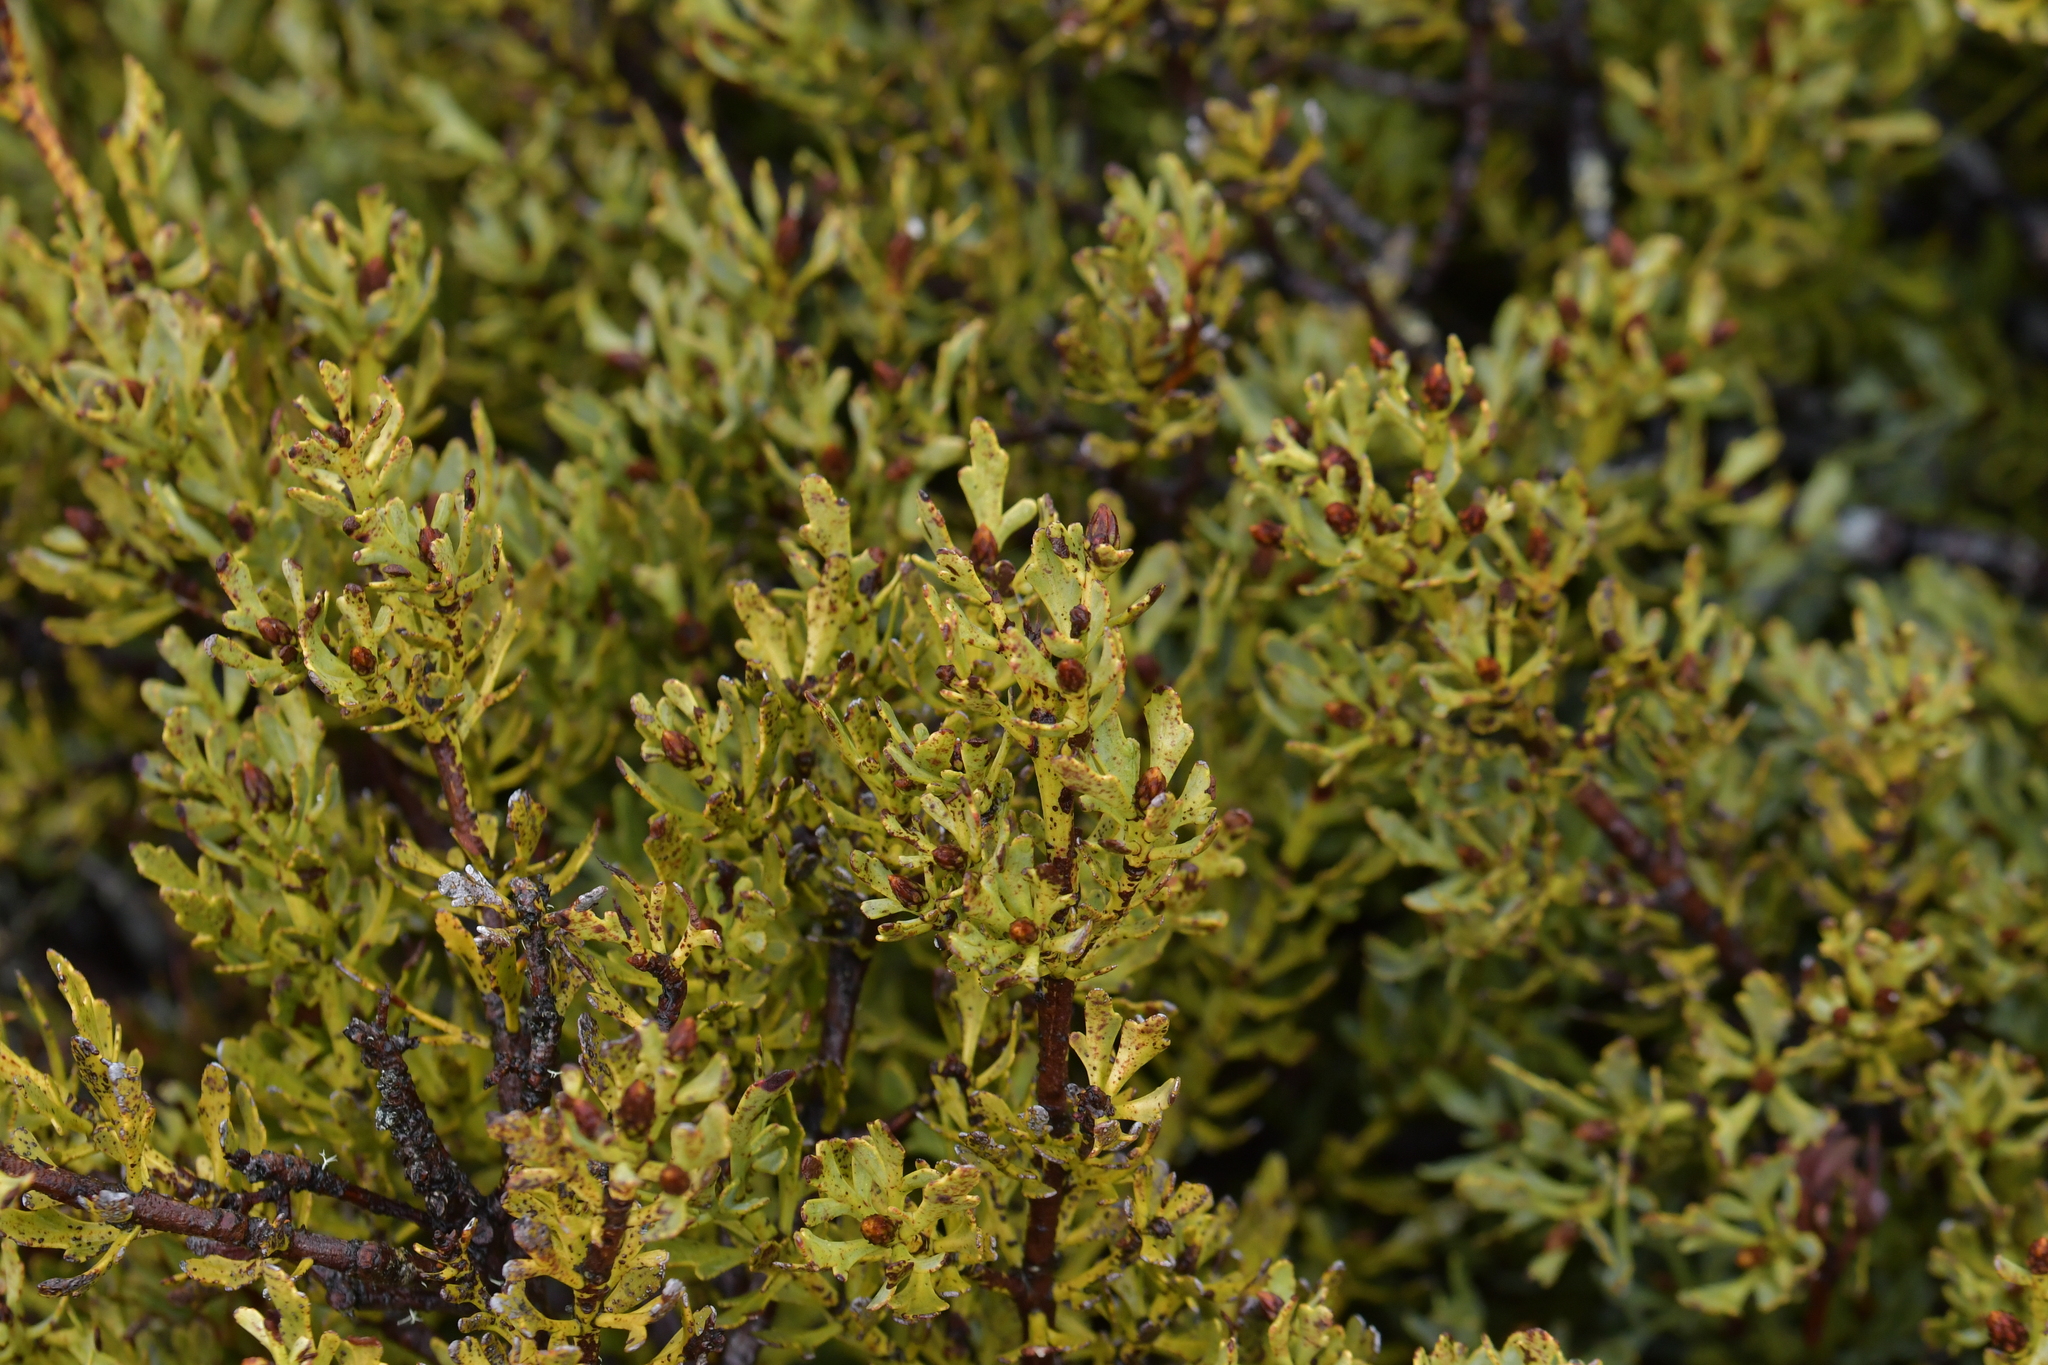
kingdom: Plantae
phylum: Tracheophyta
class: Pinopsida
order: Pinales
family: Phyllocladaceae
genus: Phyllocladus
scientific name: Phyllocladus trichomanoides
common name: Celery pine
